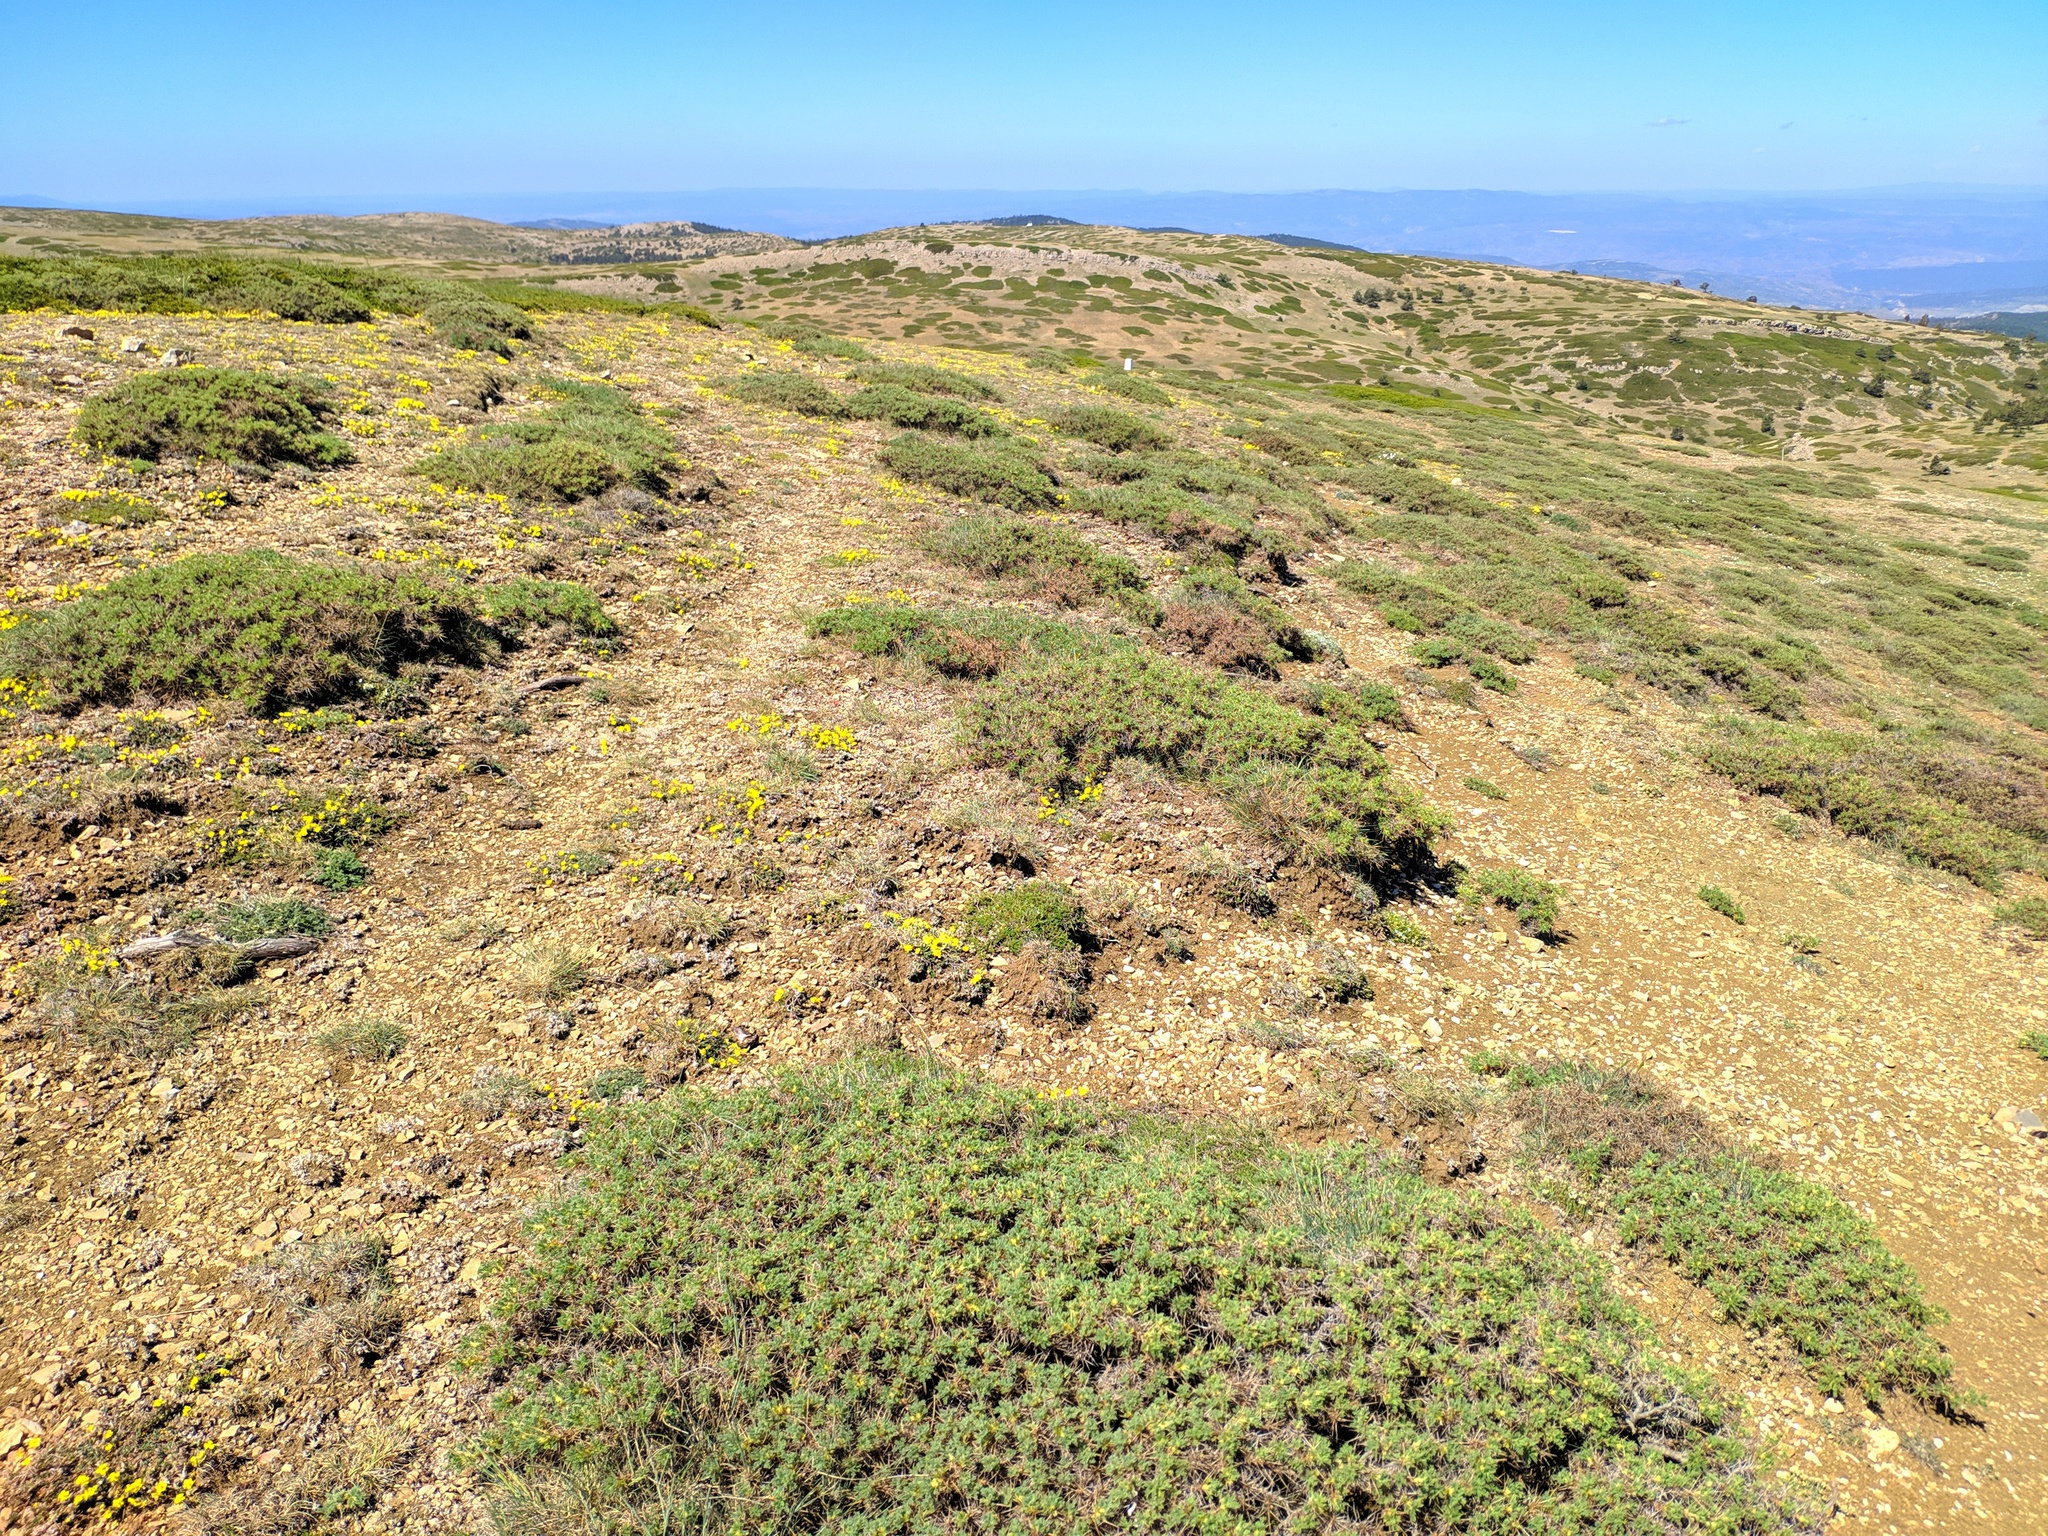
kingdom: Plantae
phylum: Tracheophyta
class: Magnoliopsida
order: Fabales
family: Fabaceae
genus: Astragalus
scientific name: Astragalus granatensis
